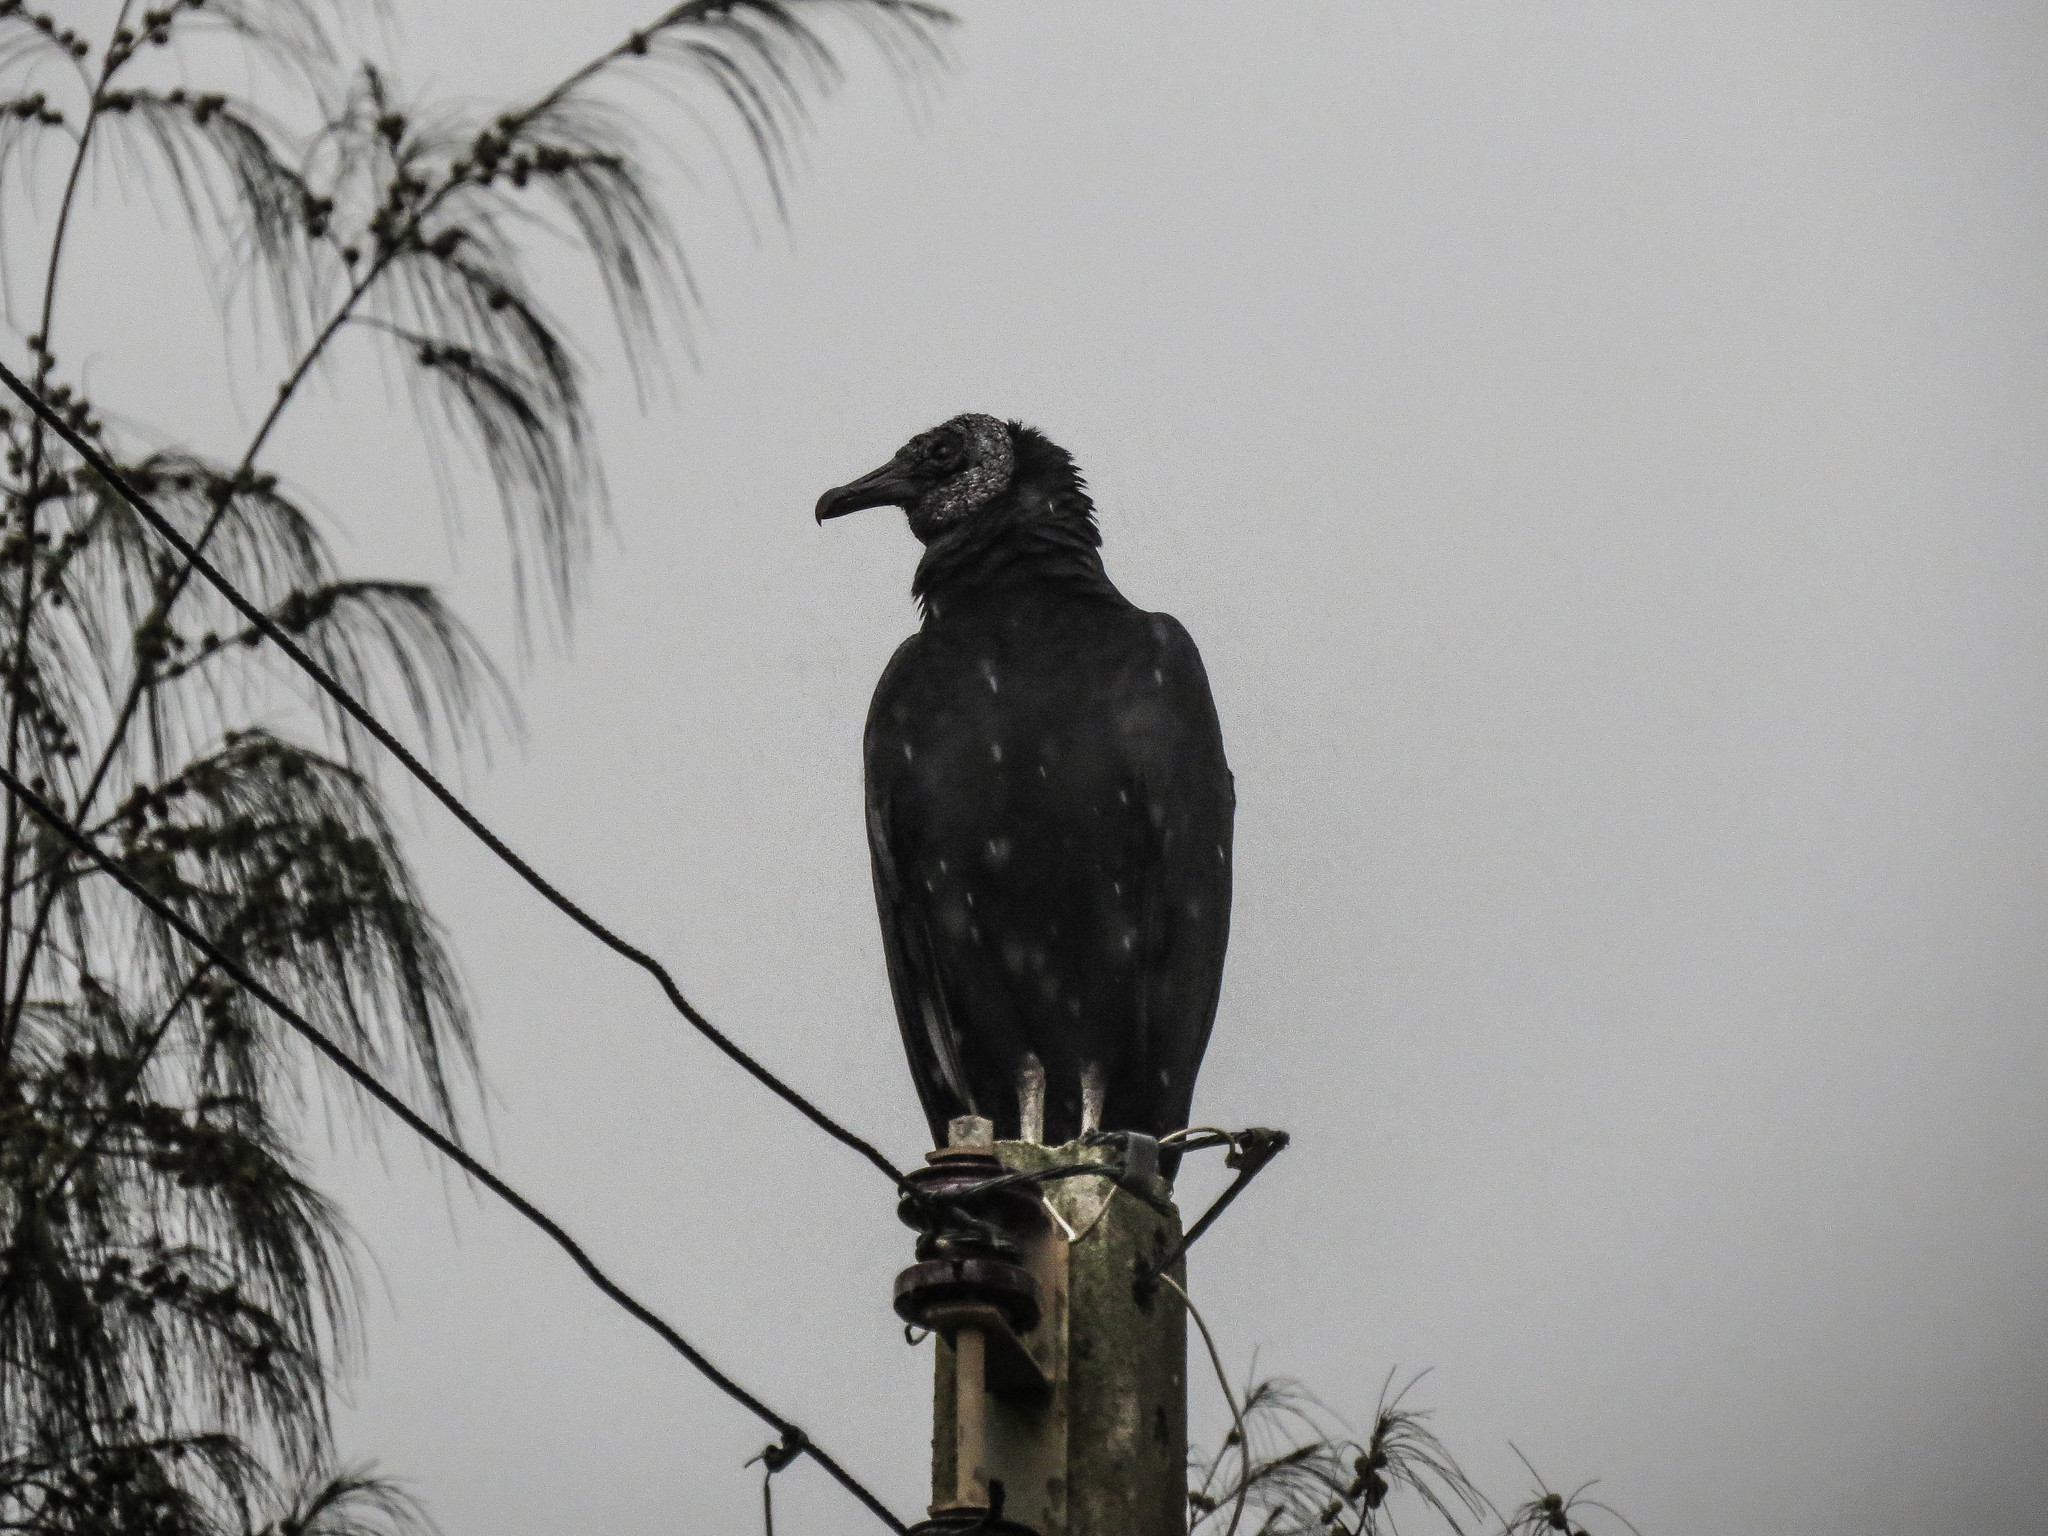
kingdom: Animalia
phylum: Chordata
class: Aves
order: Accipitriformes
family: Cathartidae
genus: Coragyps
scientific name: Coragyps atratus
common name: Black vulture
